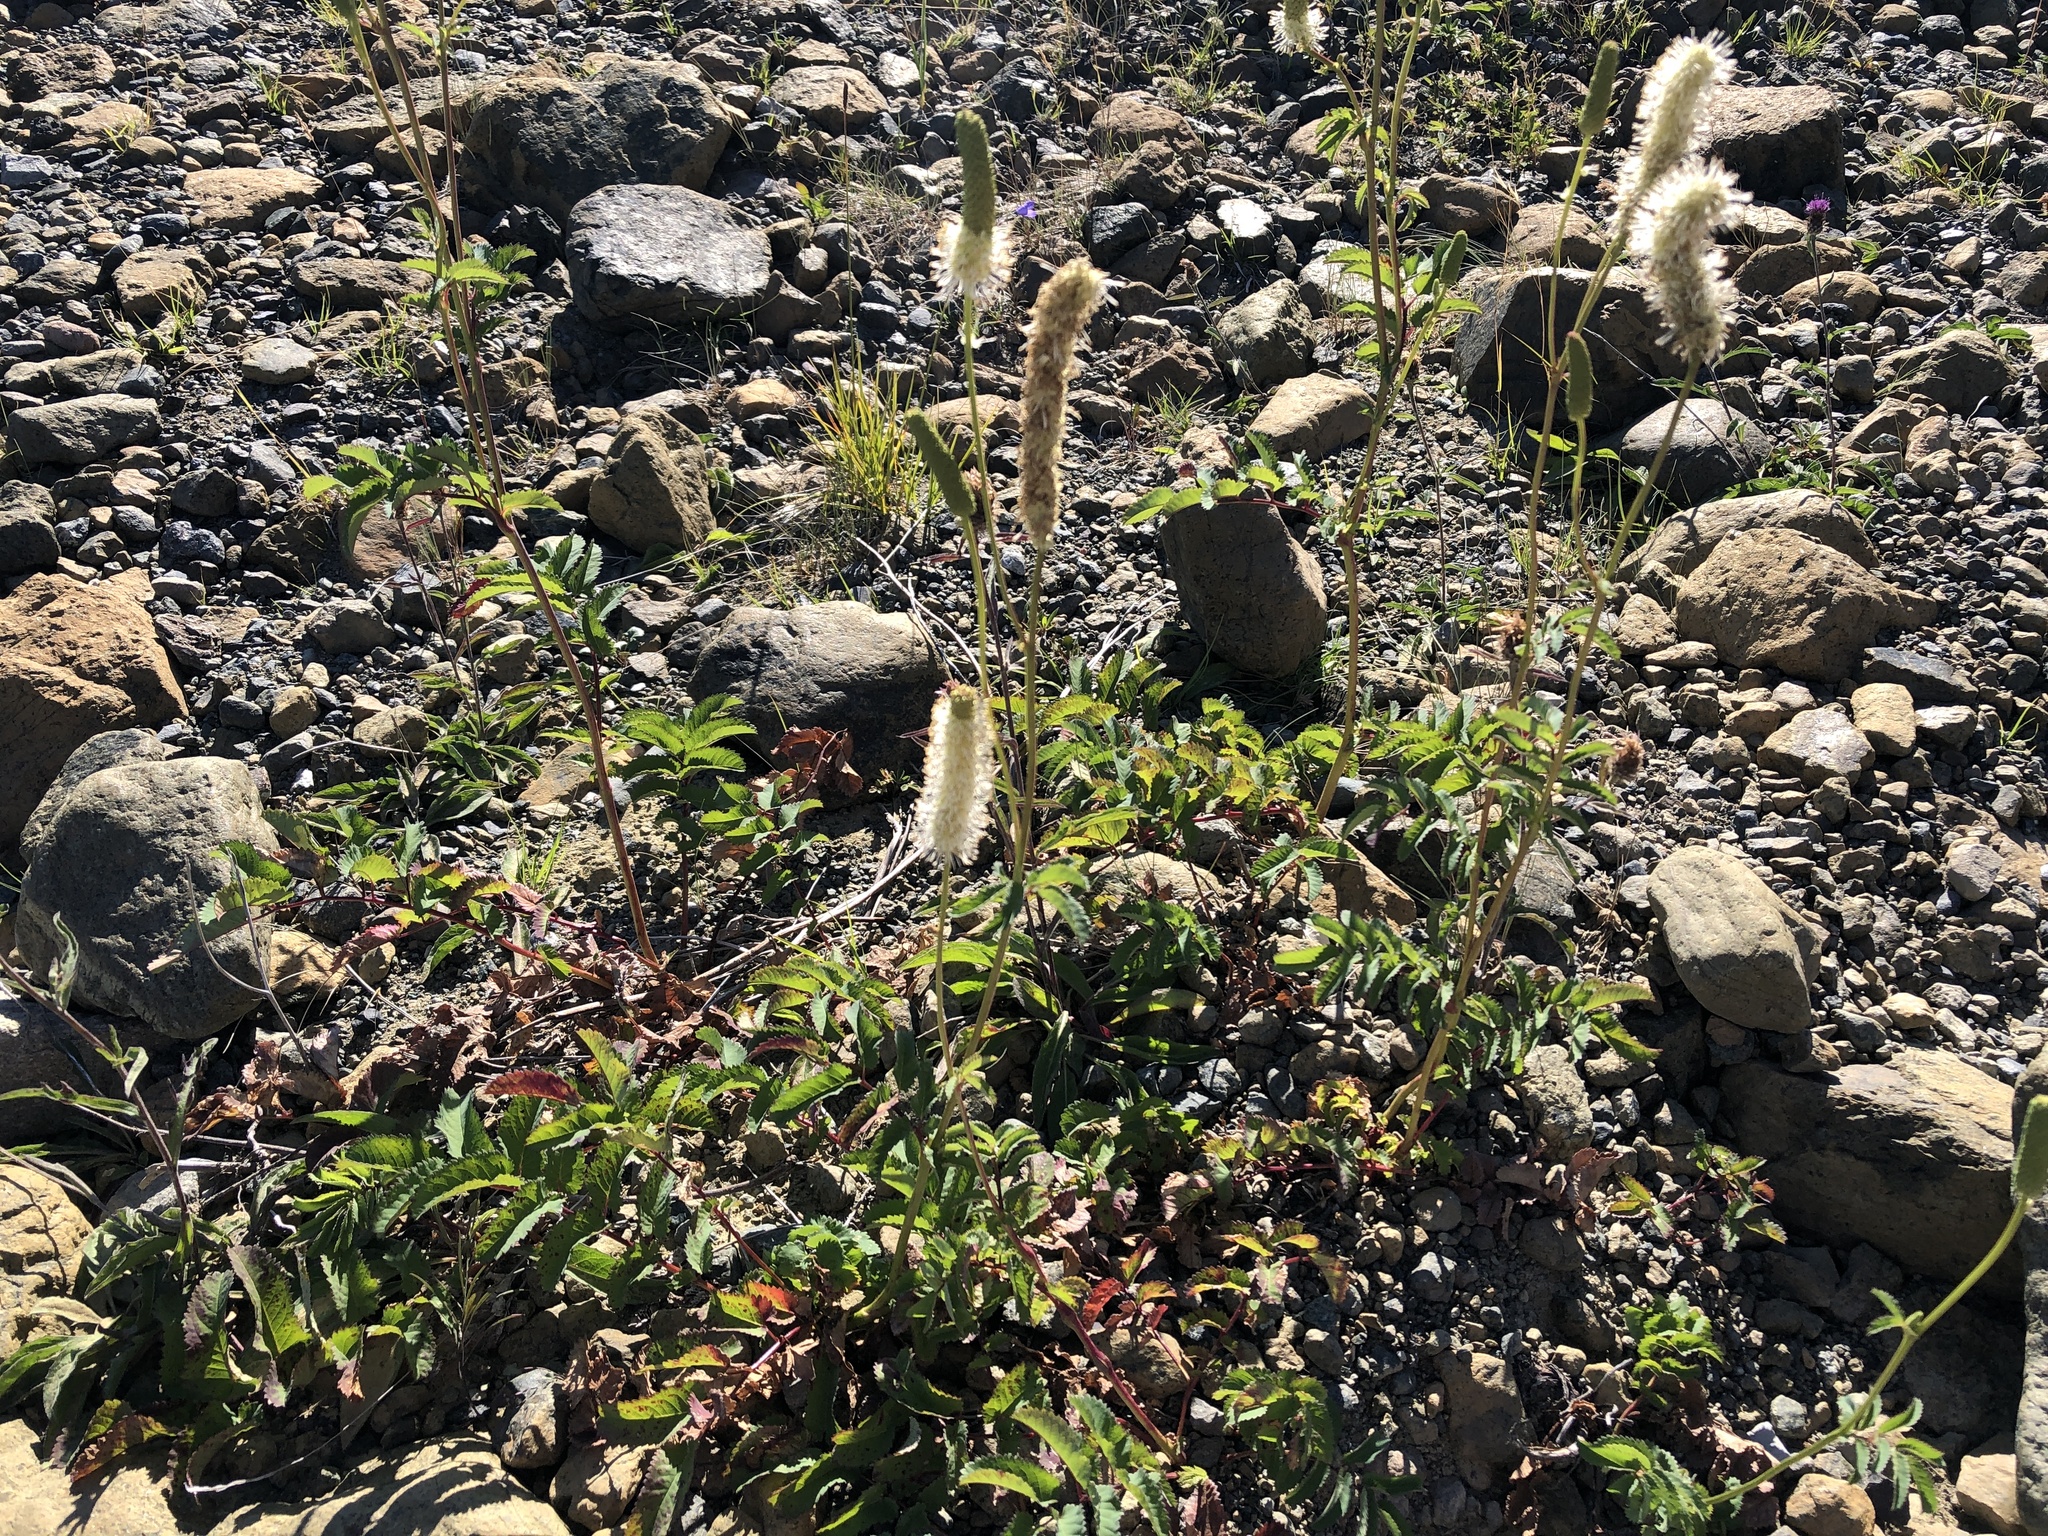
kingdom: Plantae
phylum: Tracheophyta
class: Magnoliopsida
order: Rosales
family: Rosaceae
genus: Sanguisorba
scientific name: Sanguisorba canadensis
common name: White burnet
